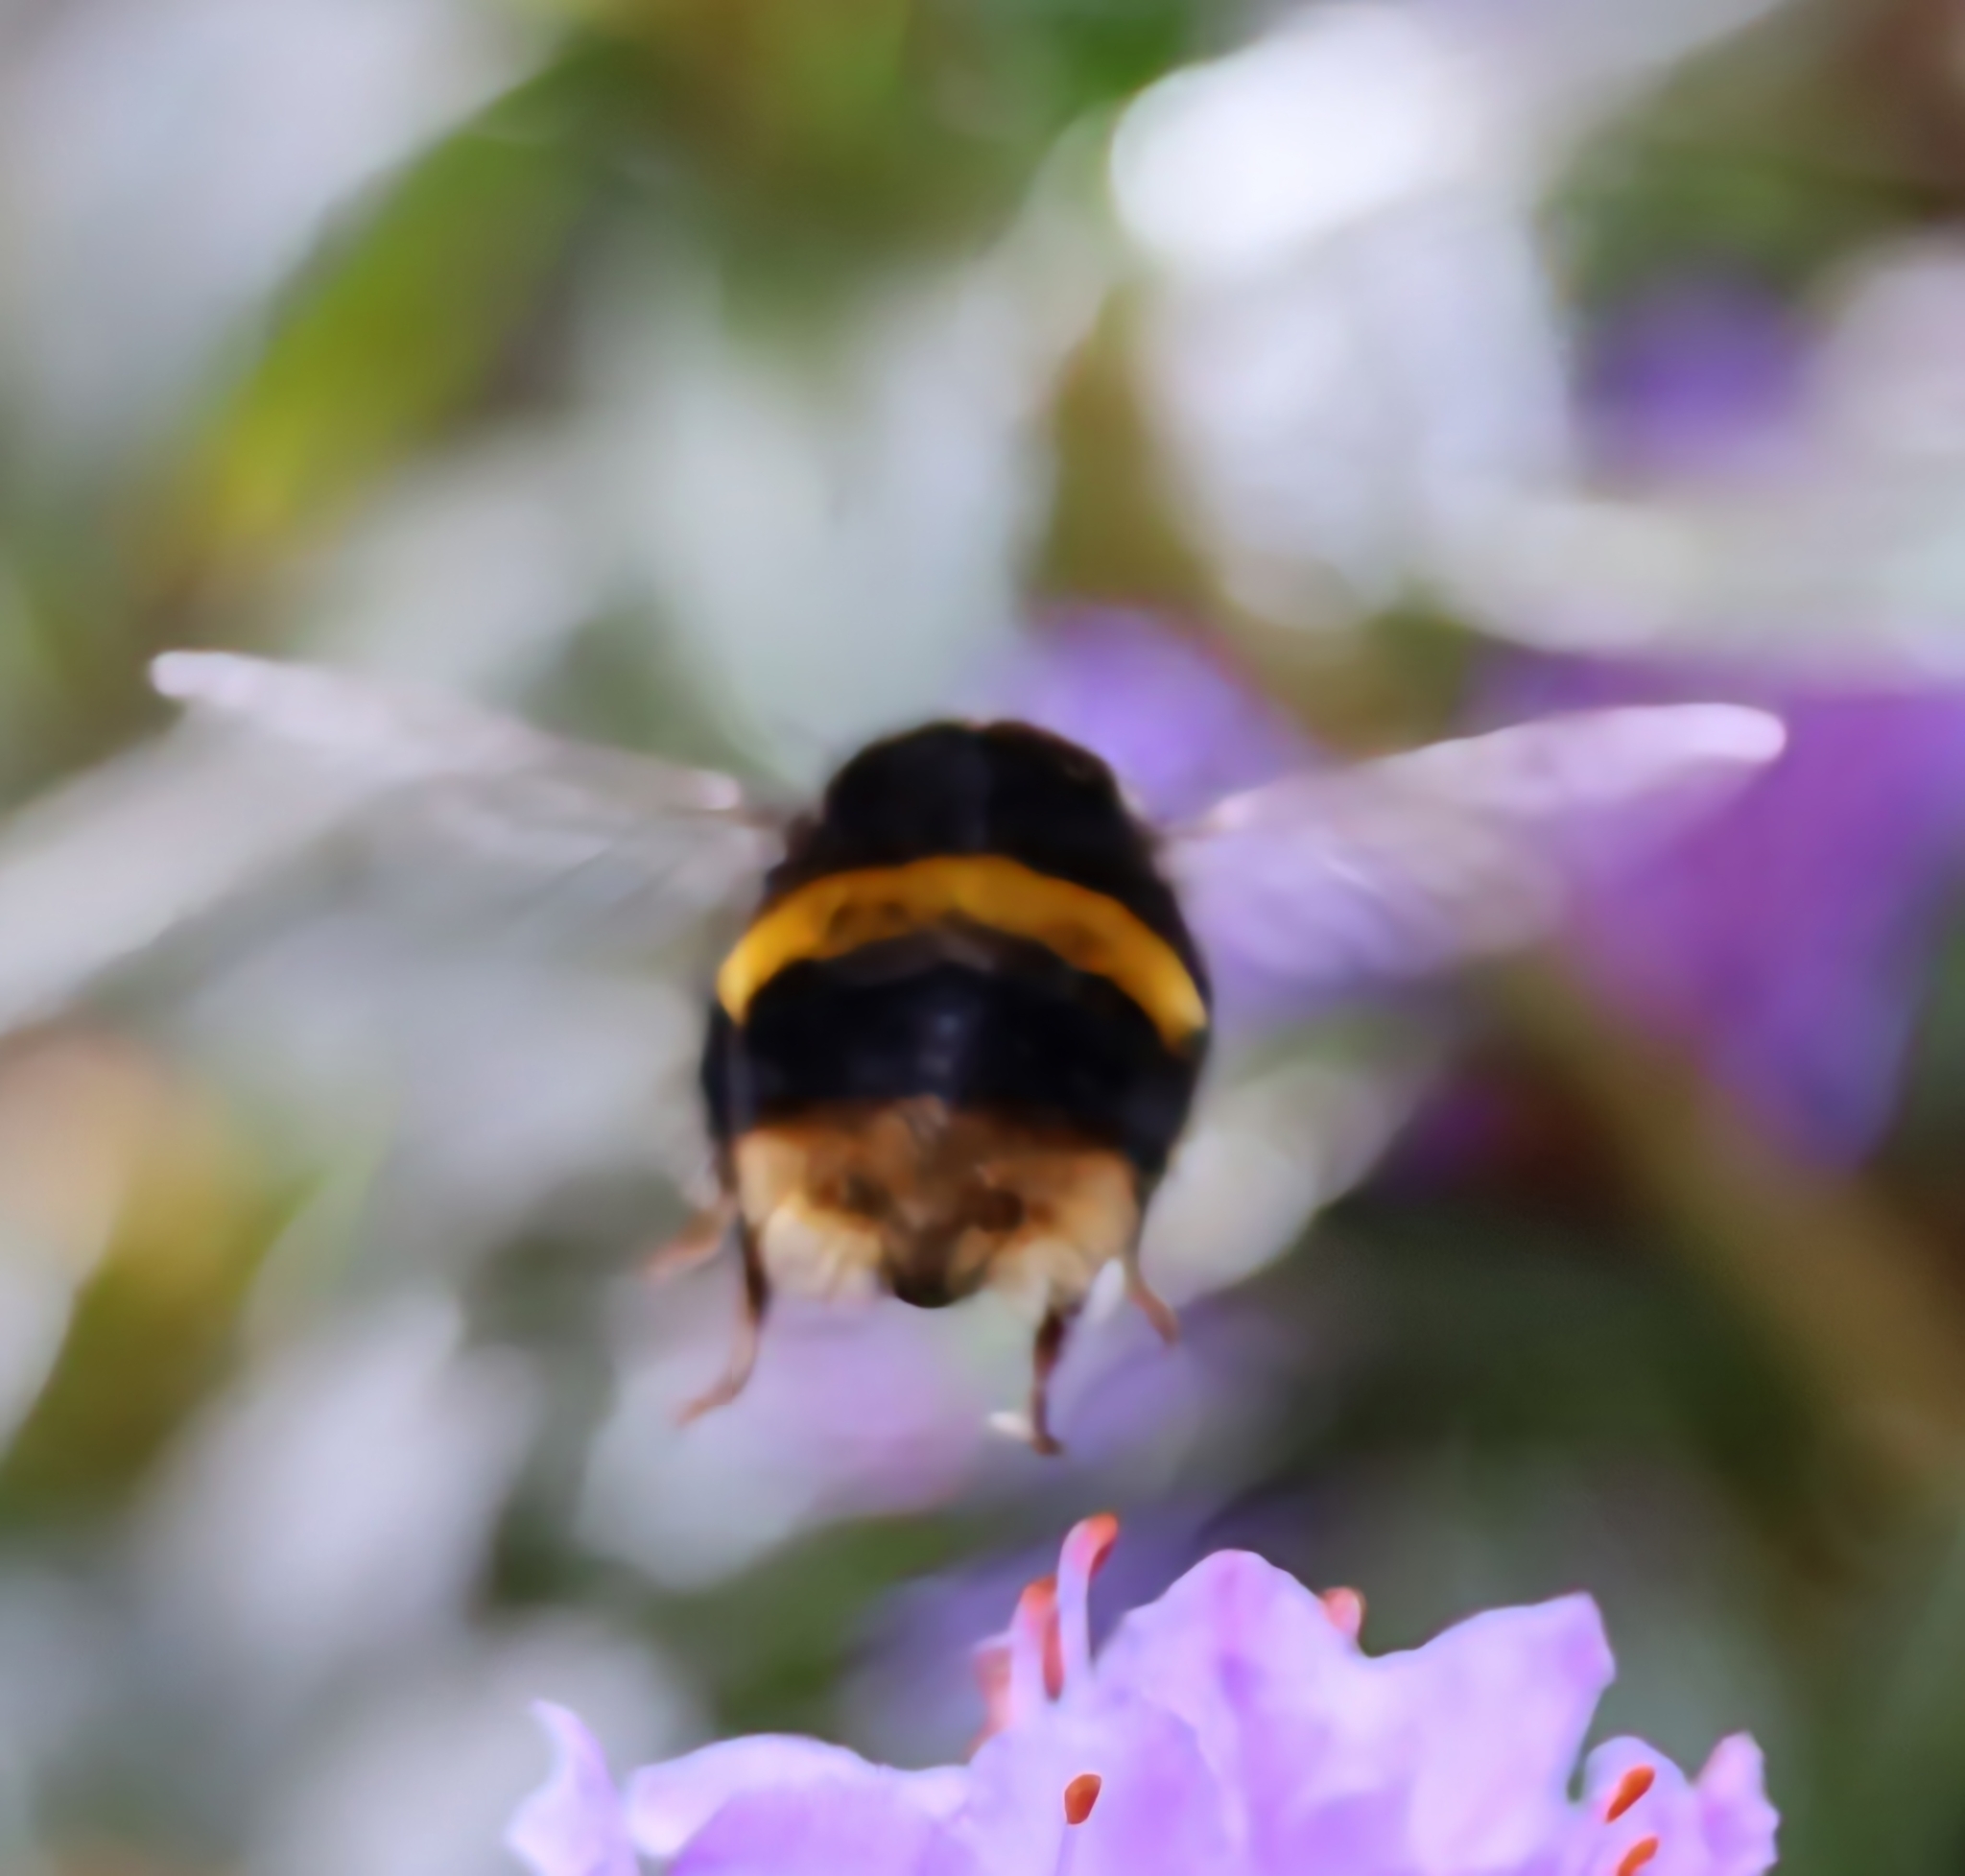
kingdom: Animalia
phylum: Arthropoda
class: Insecta
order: Hymenoptera
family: Apidae
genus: Bombus
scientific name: Bombus terrestris
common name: Buff-tailed bumblebee
